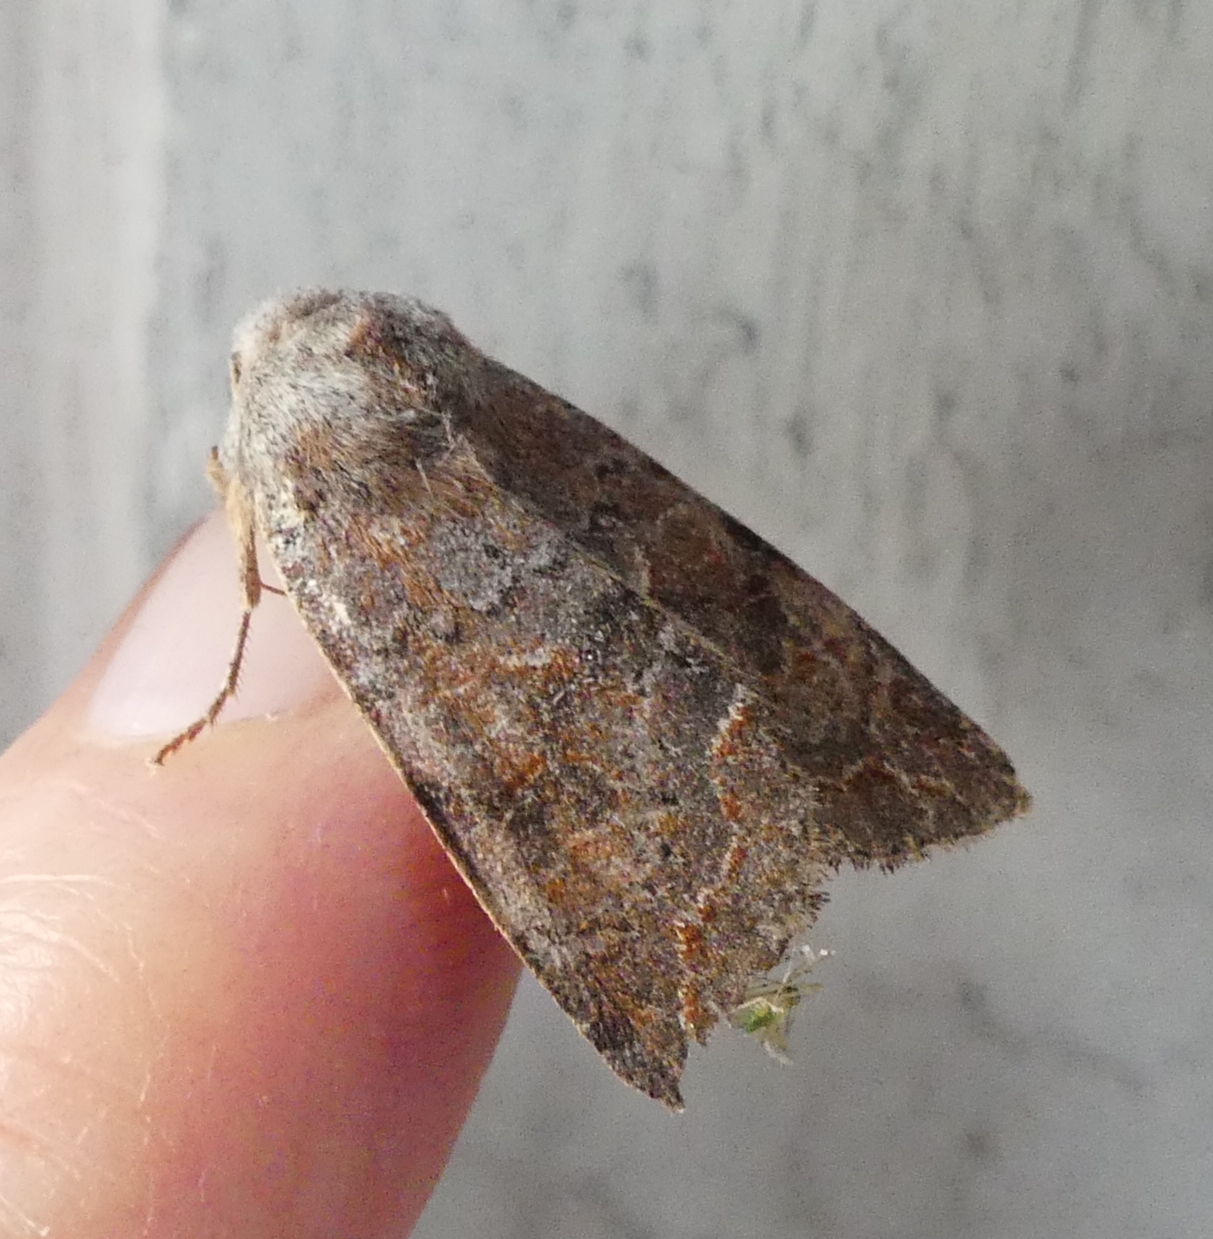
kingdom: Animalia
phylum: Arthropoda
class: Insecta
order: Lepidoptera
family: Noctuidae
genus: Orthosia
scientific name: Orthosia revicta
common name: Rusty whitesided caterpillar
